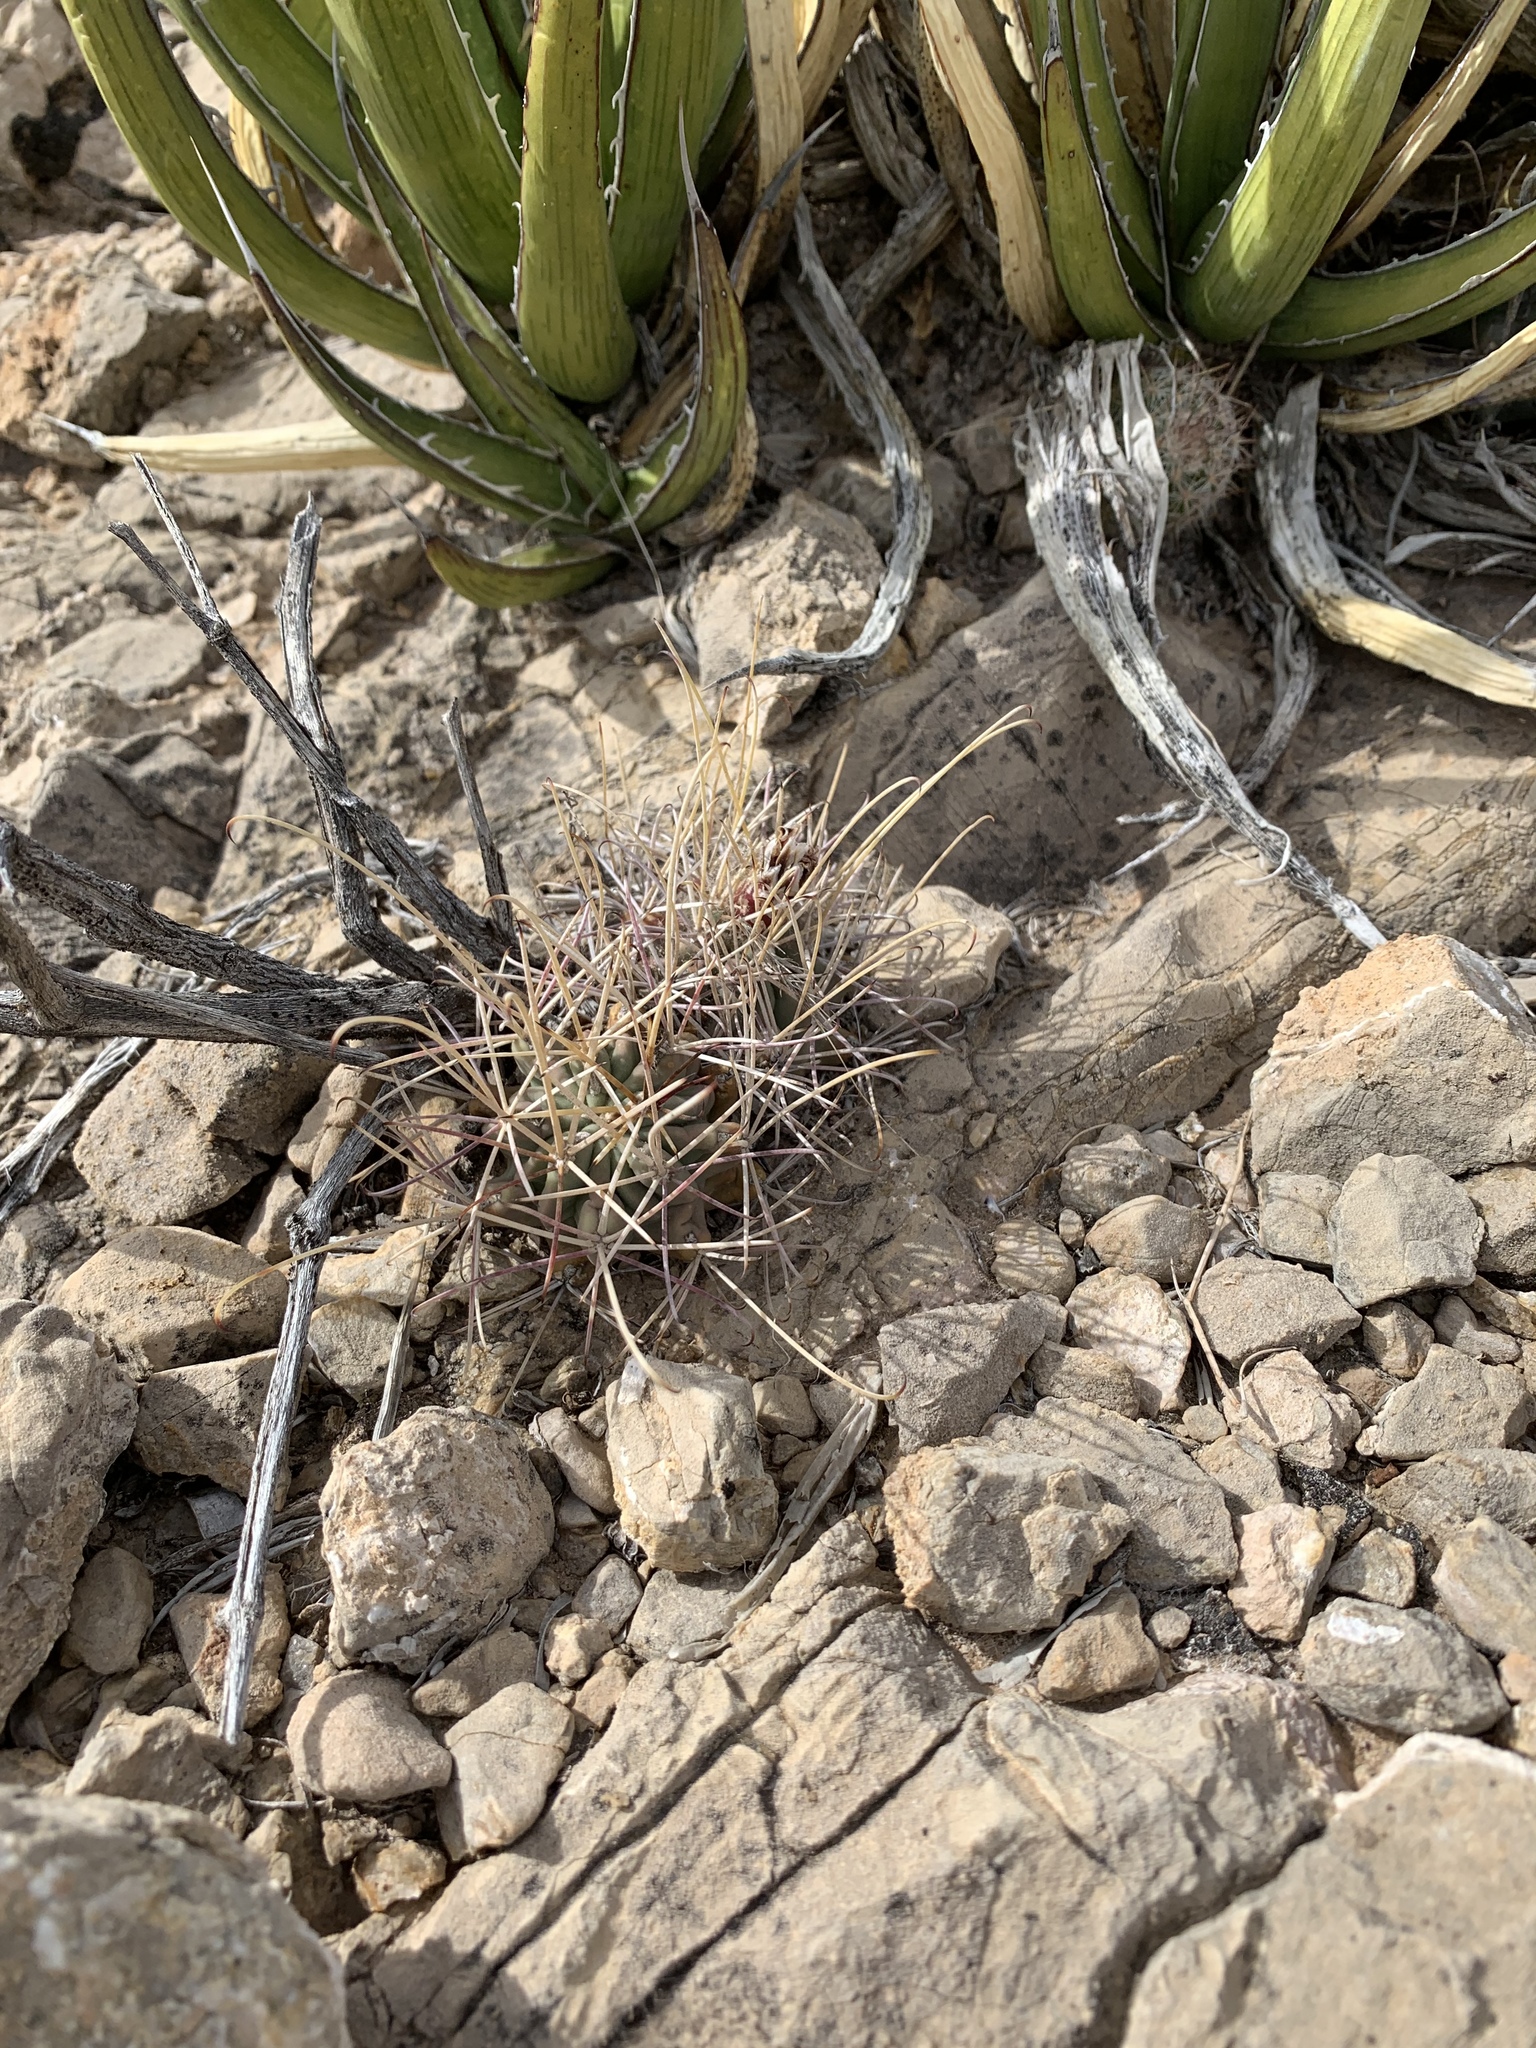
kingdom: Plantae
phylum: Tracheophyta
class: Magnoliopsida
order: Caryophyllales
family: Cactaceae
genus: Ferocactus
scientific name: Ferocactus uncinatus
